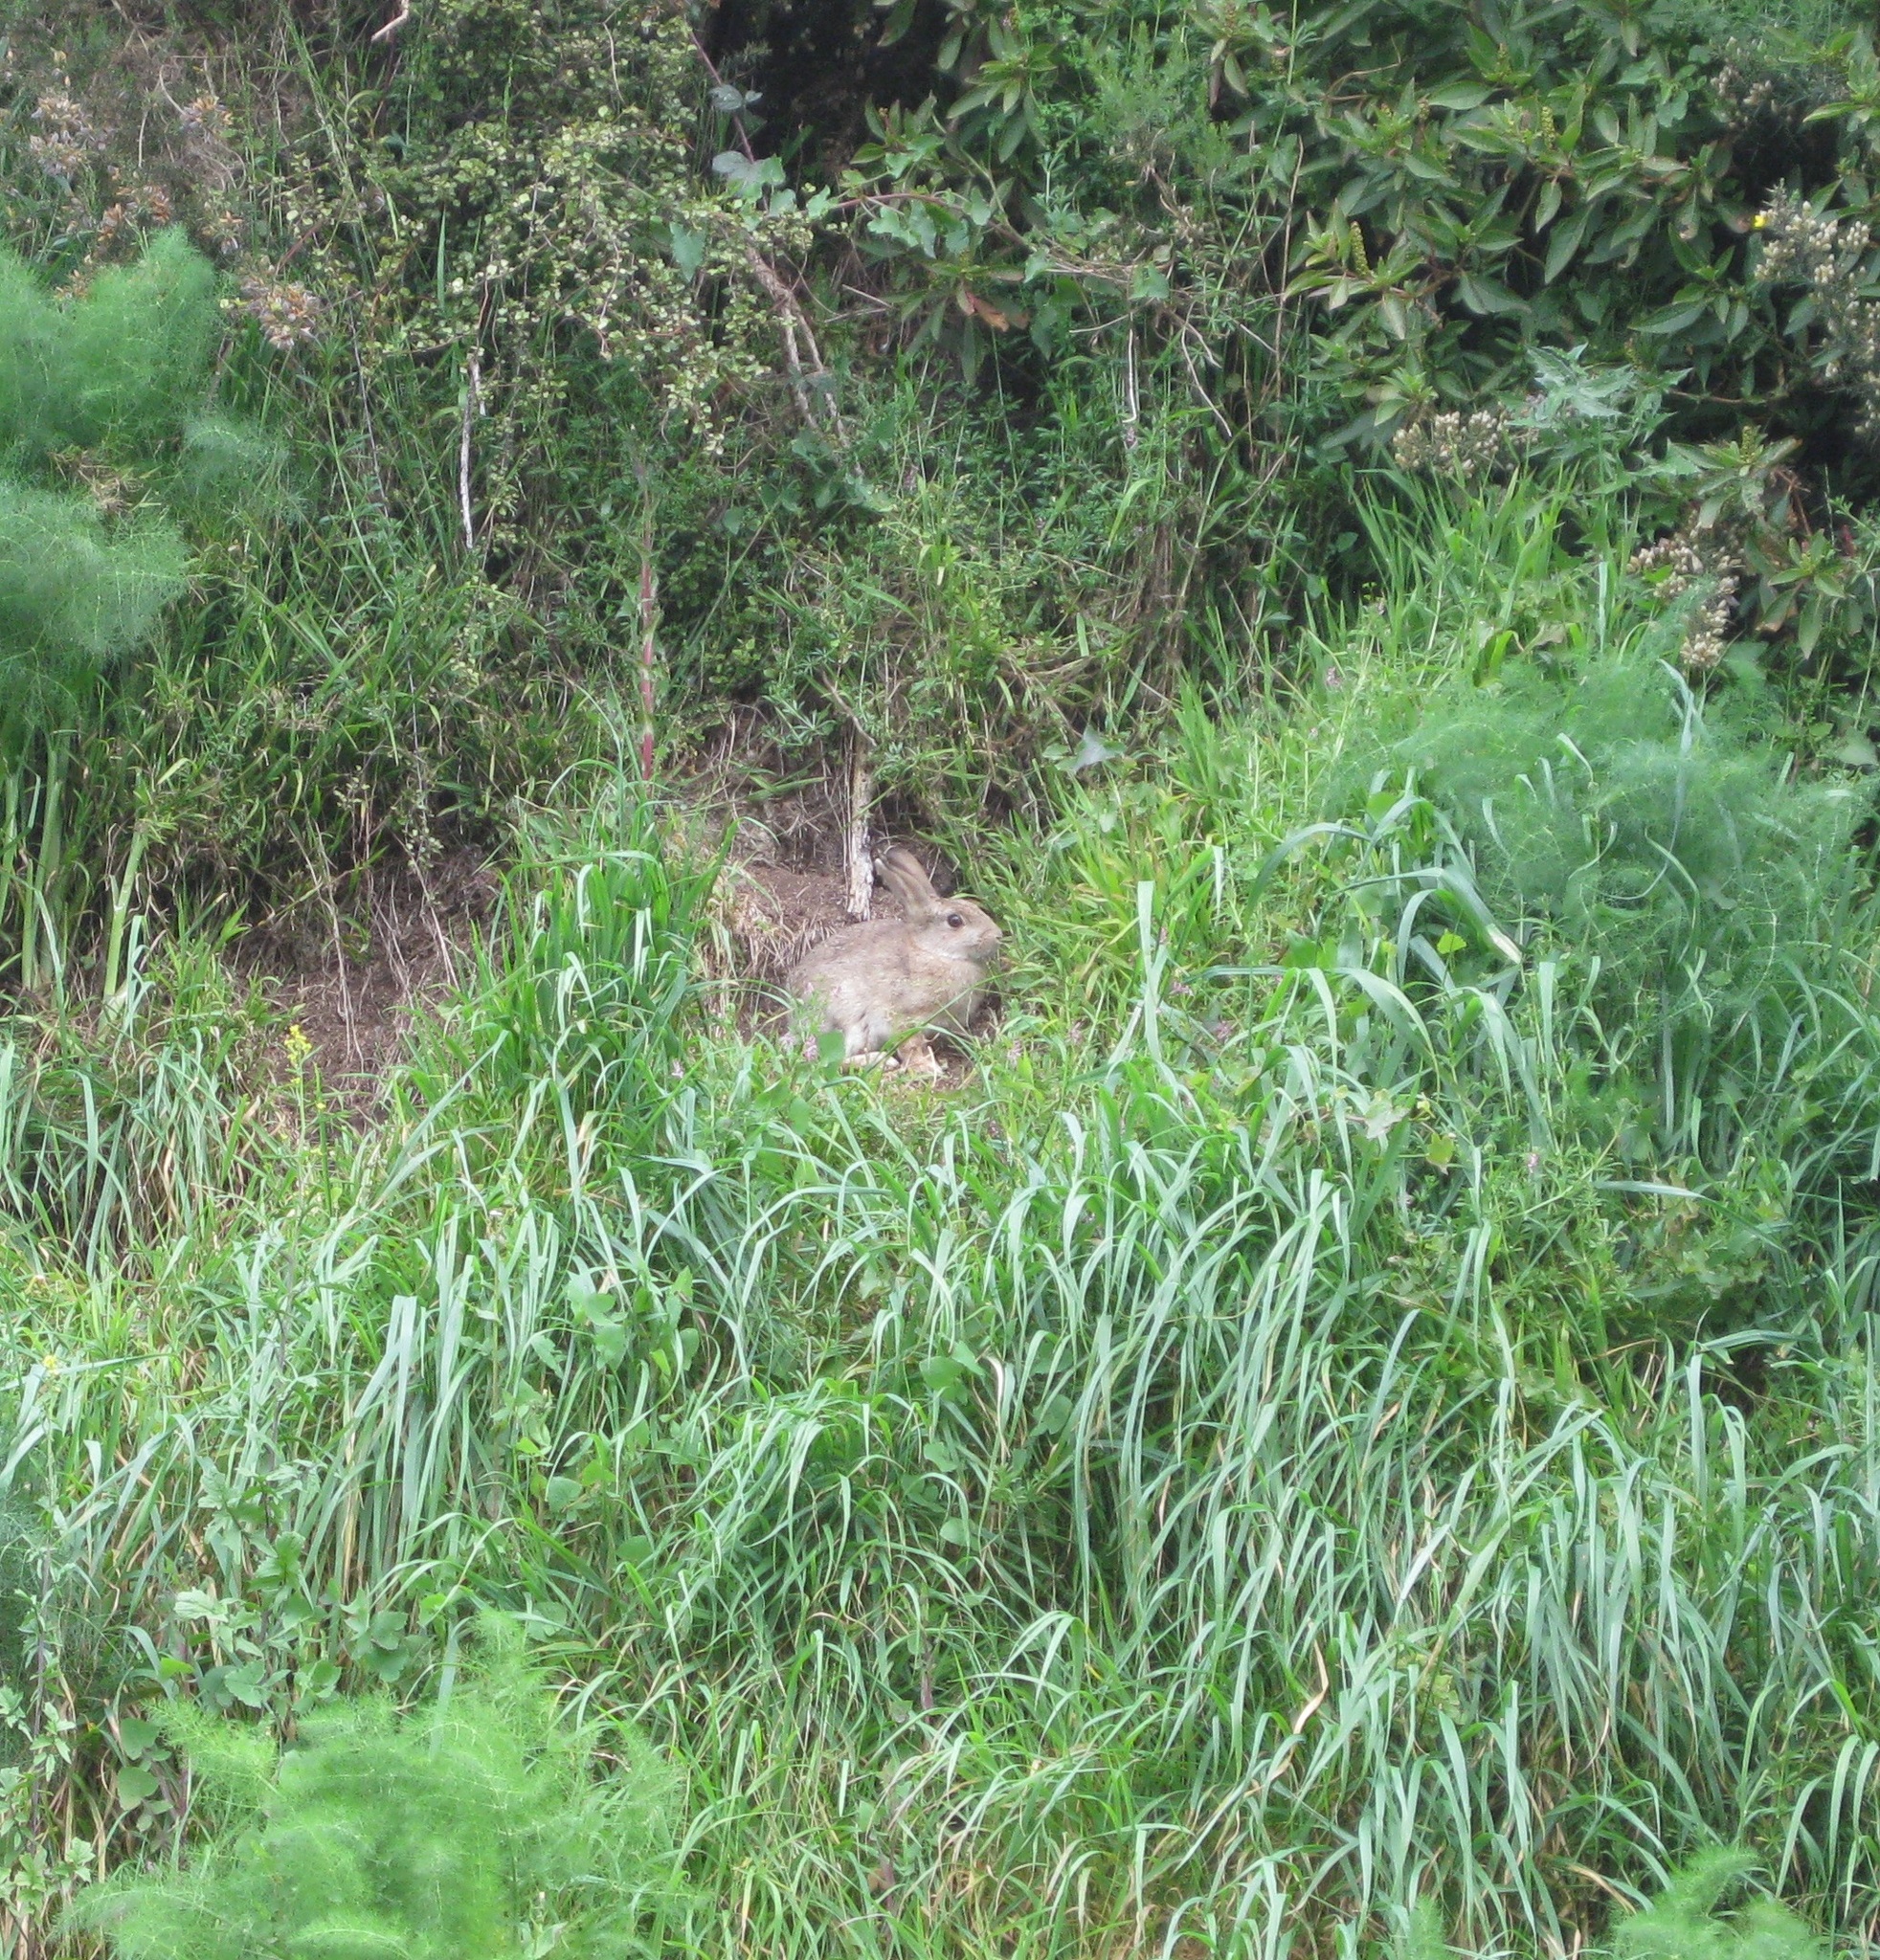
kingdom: Animalia
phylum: Chordata
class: Mammalia
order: Lagomorpha
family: Leporidae
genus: Oryctolagus
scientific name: Oryctolagus cuniculus
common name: European rabbit
